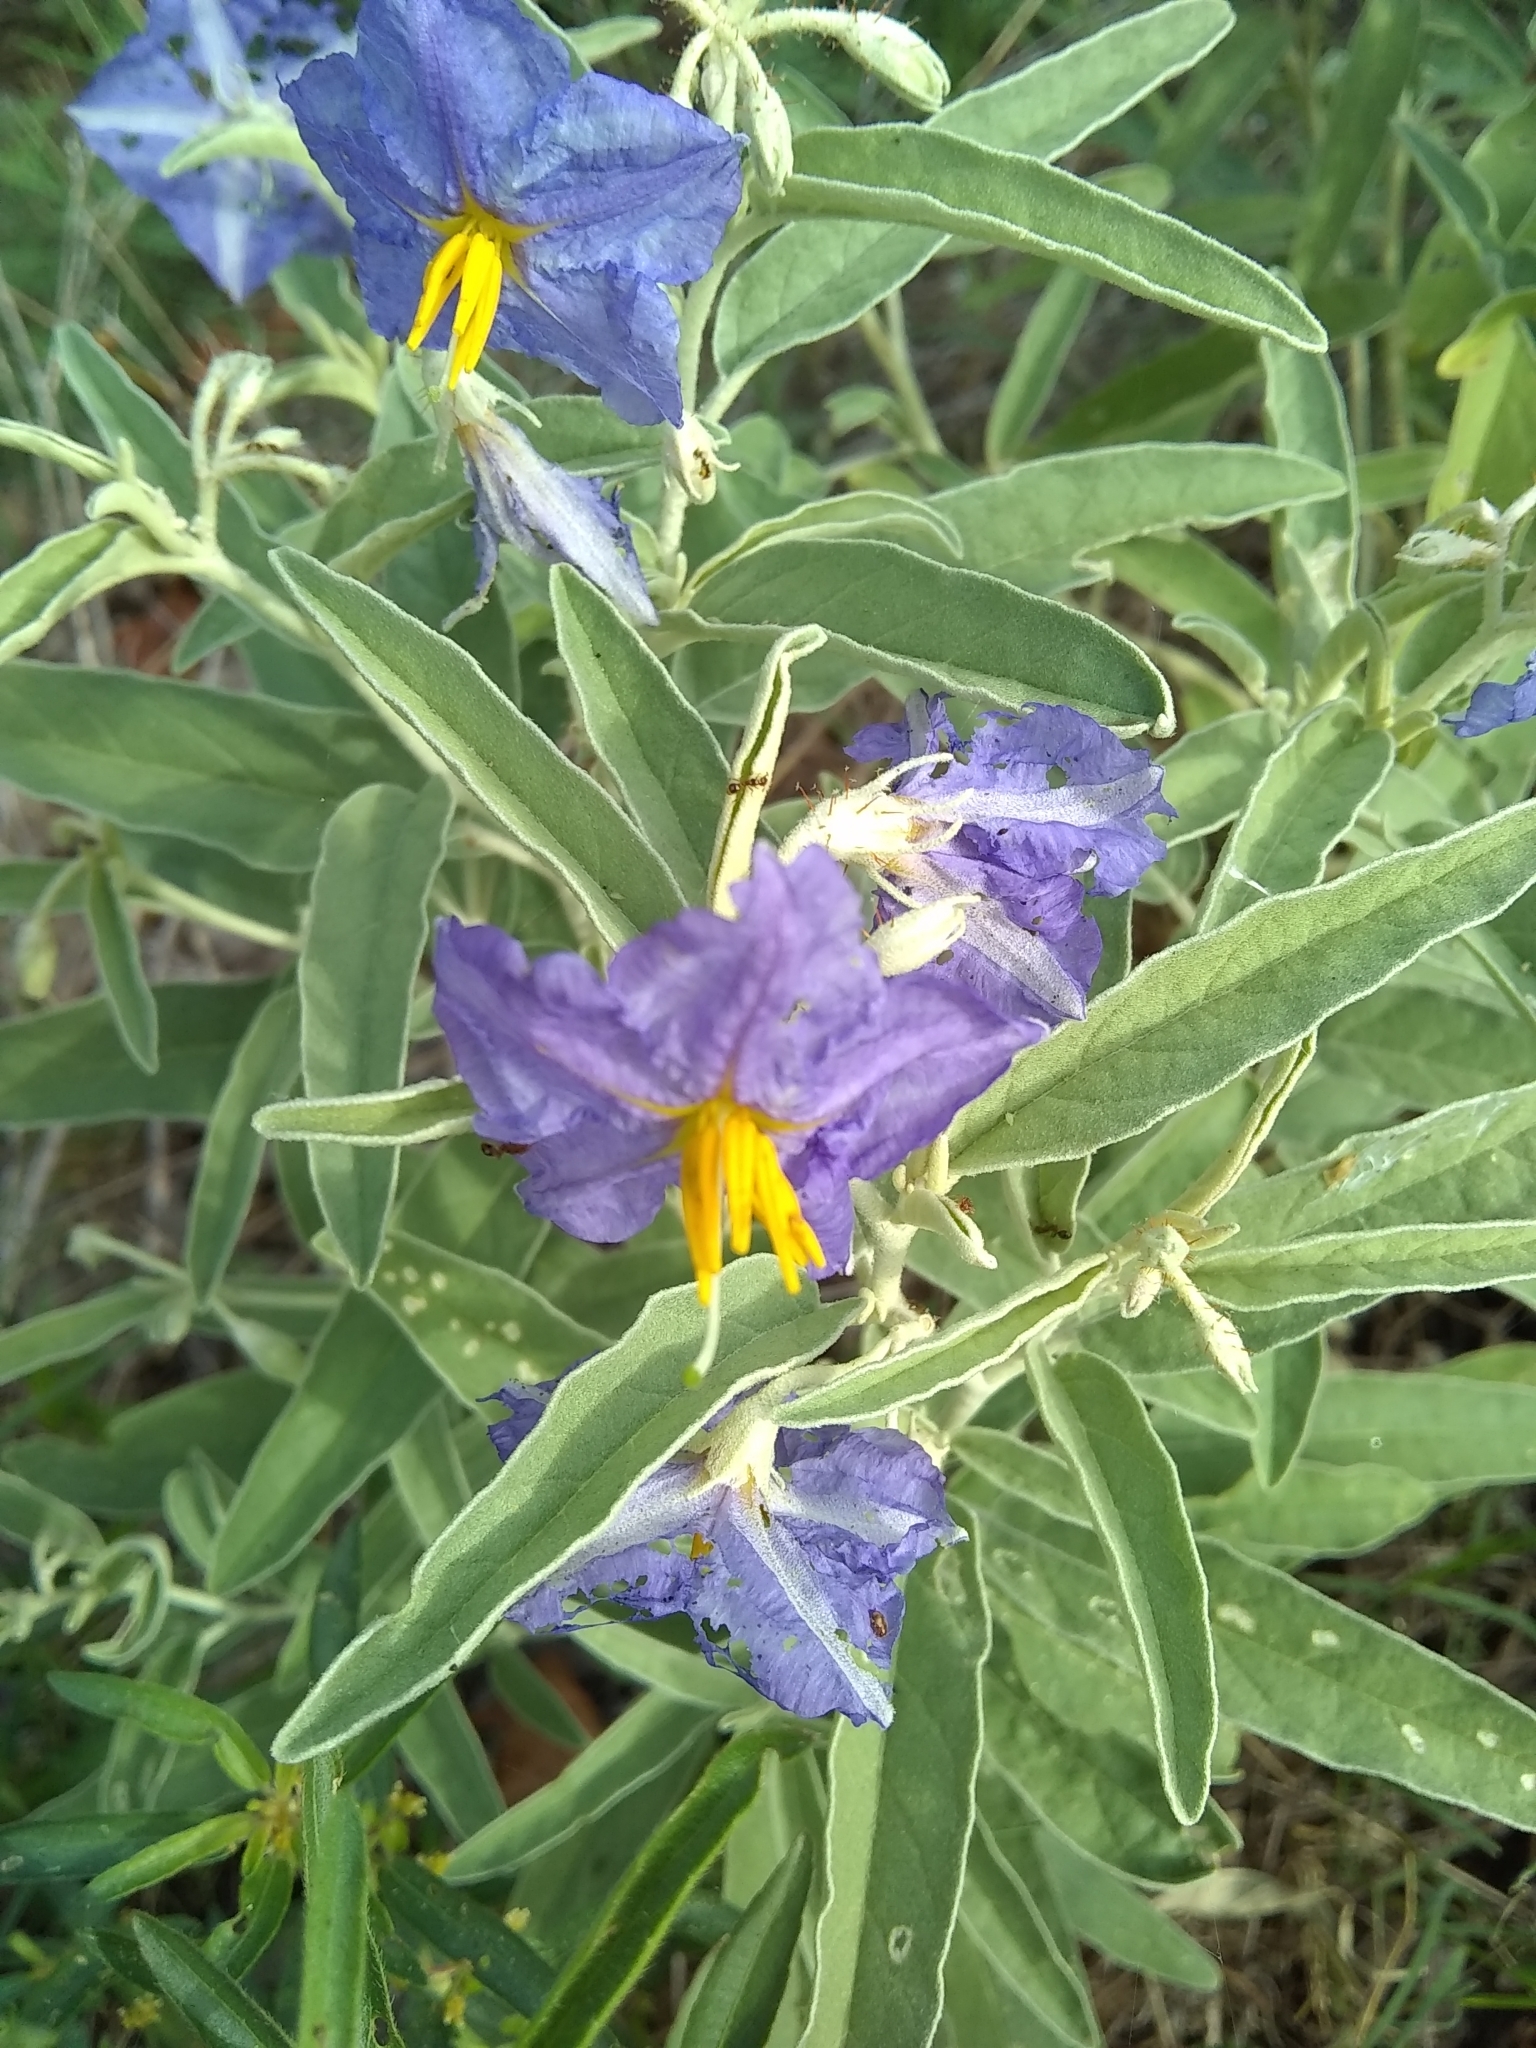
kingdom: Plantae
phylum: Tracheophyta
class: Magnoliopsida
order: Solanales
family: Solanaceae
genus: Solanum
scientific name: Solanum elaeagnifolium
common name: Silverleaf nightshade
